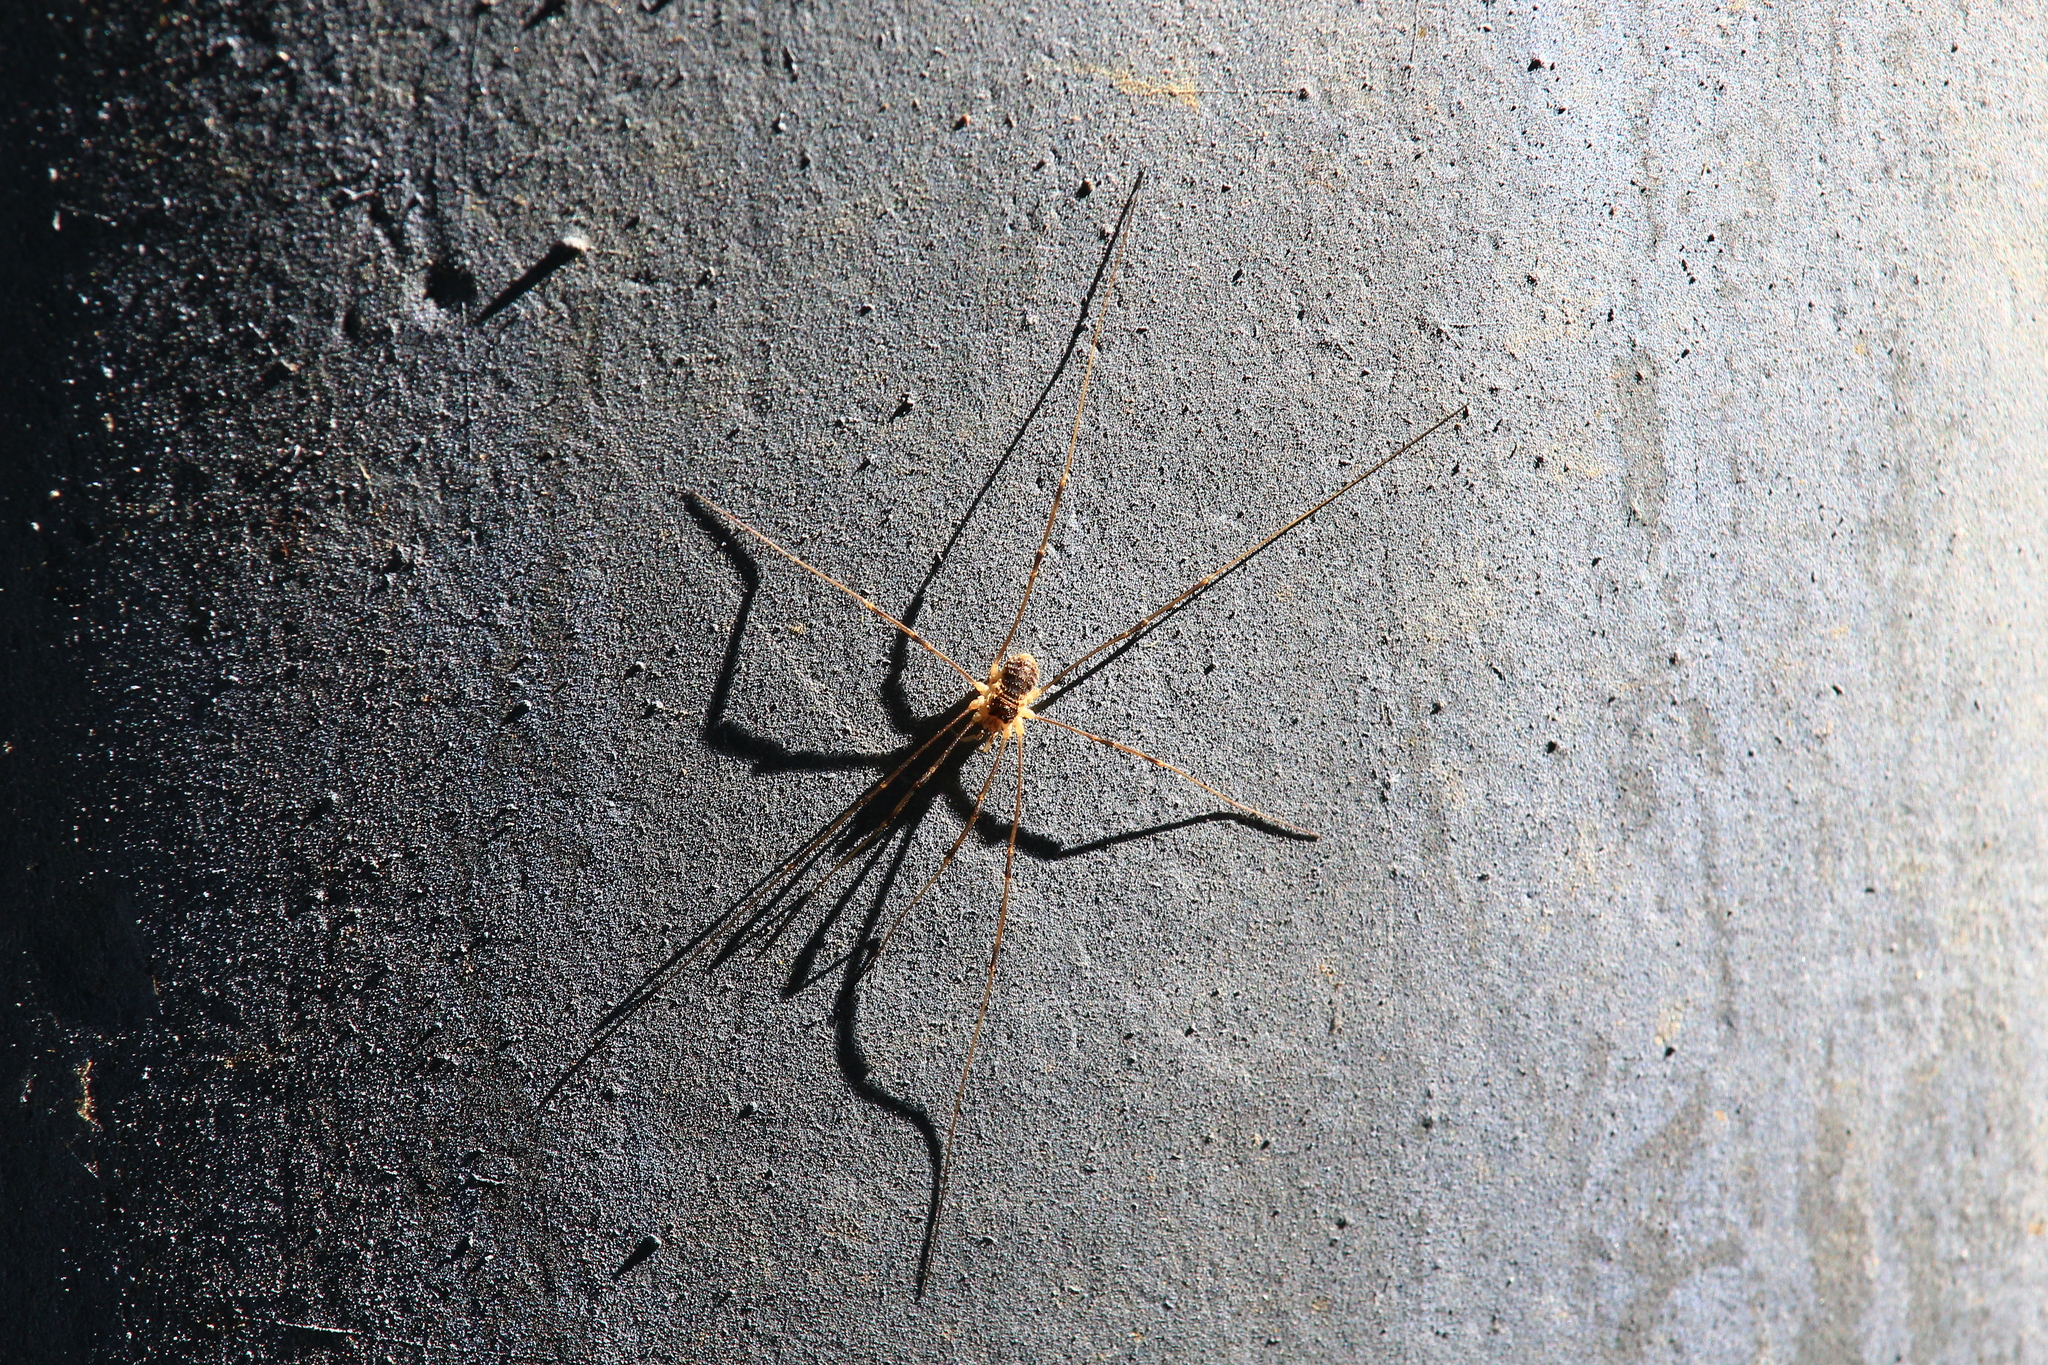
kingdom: Animalia
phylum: Arthropoda
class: Arachnida
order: Opiliones
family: Phalangiidae
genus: Mitopus
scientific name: Mitopus morio
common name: Saddleback harvestman
